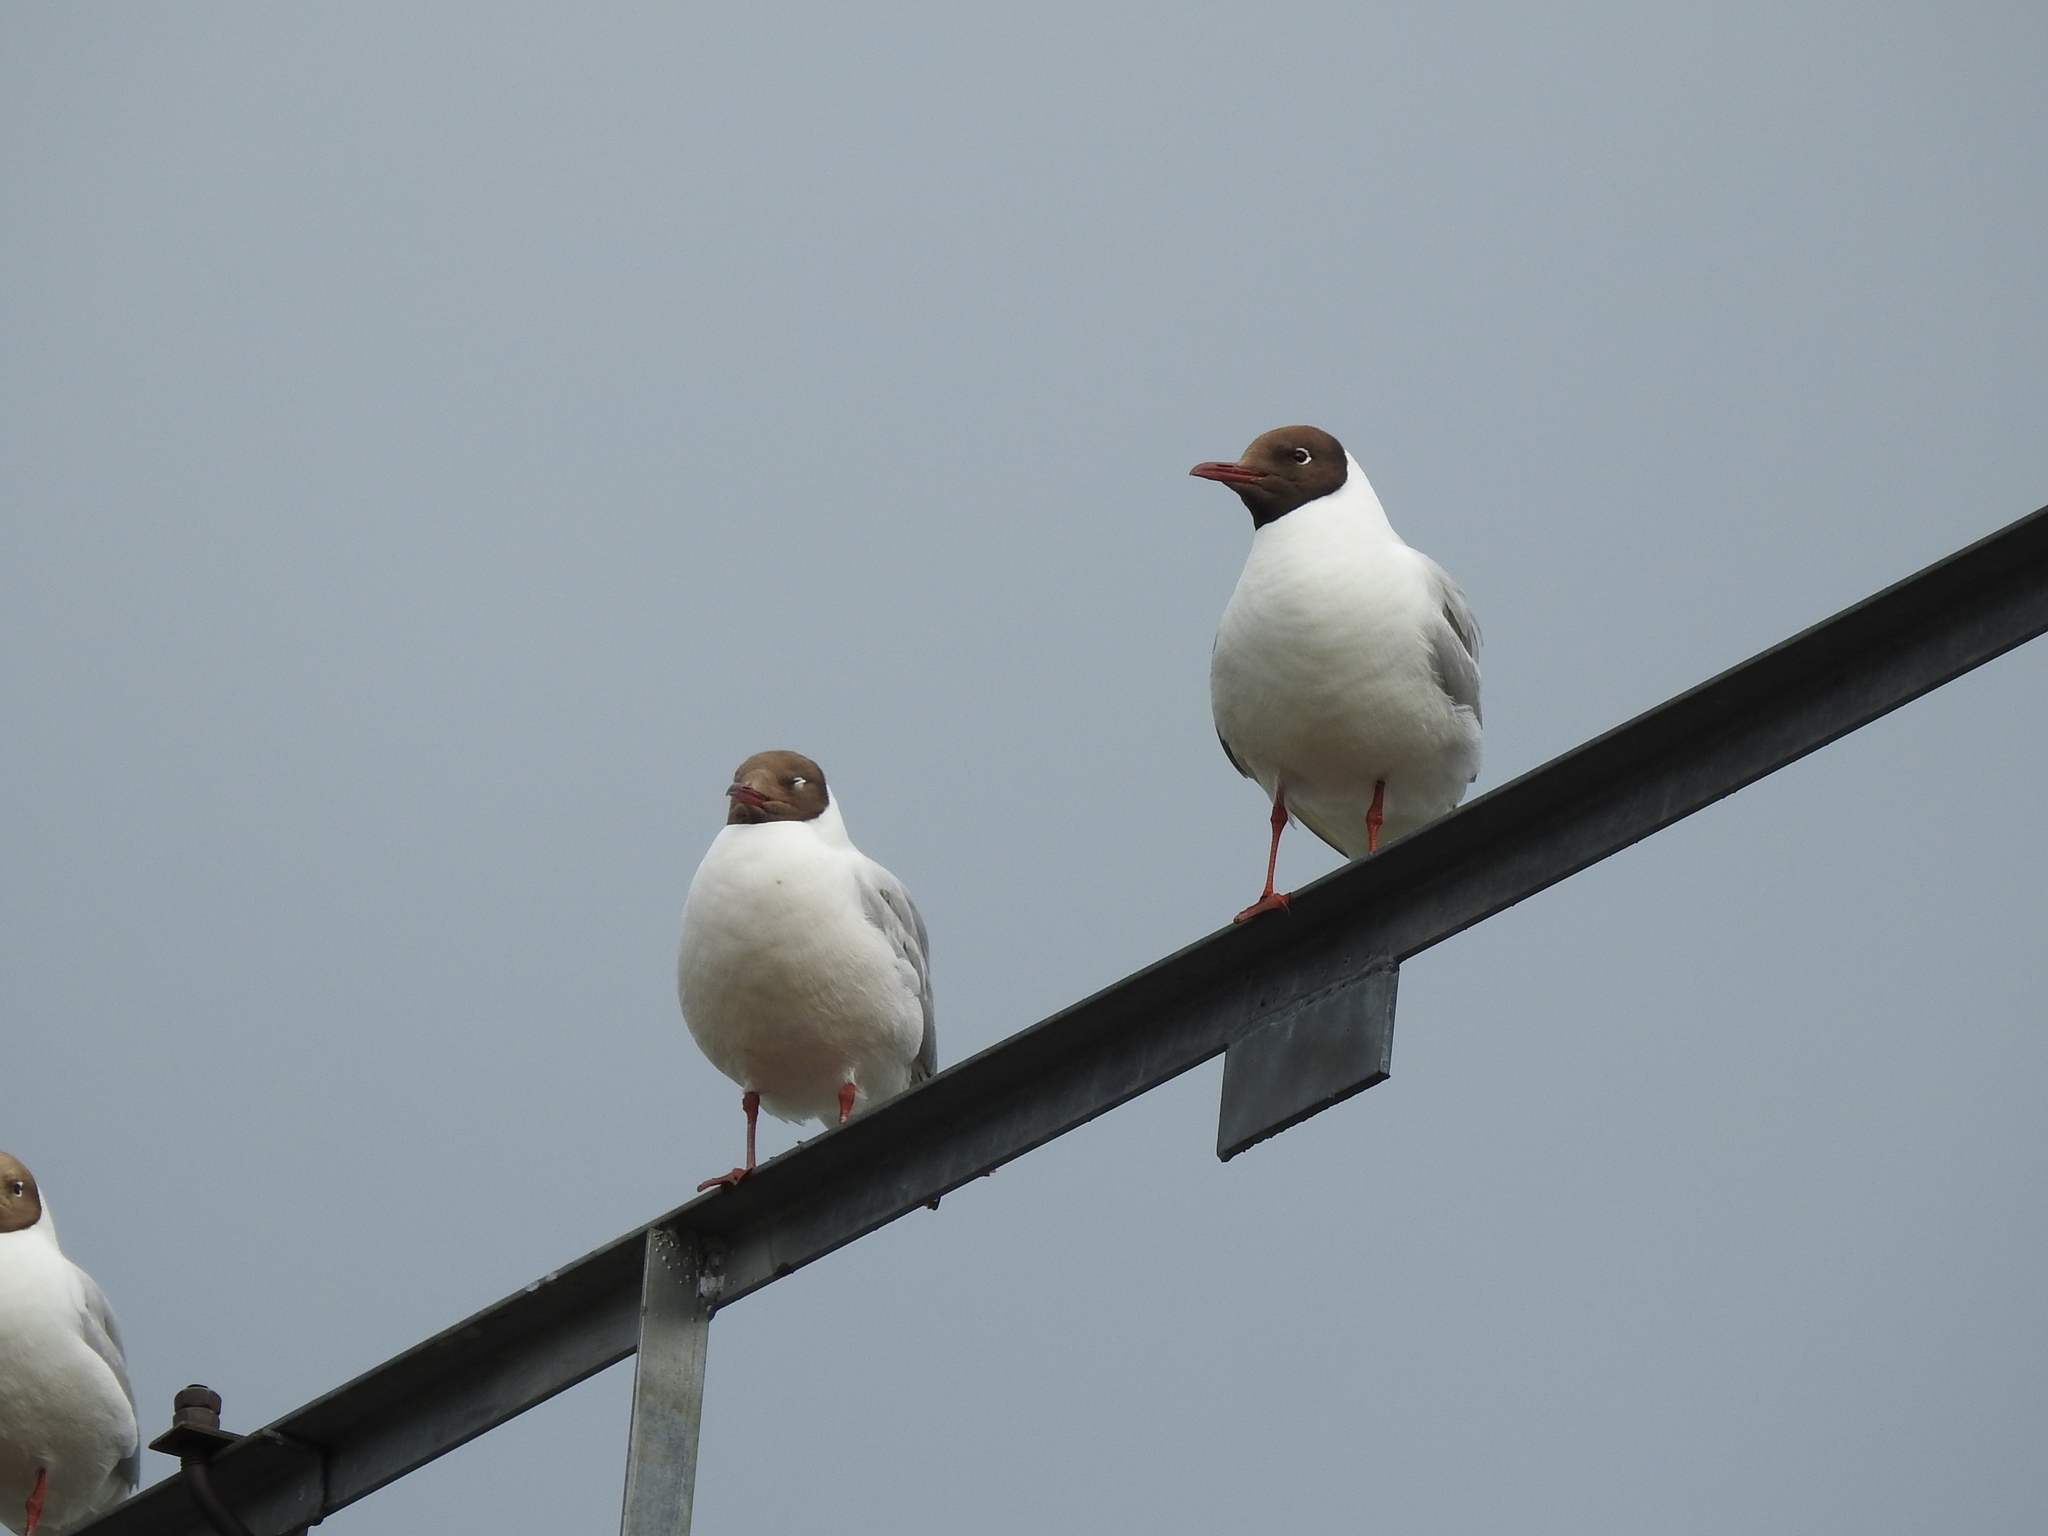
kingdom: Animalia
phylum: Chordata
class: Aves
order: Charadriiformes
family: Laridae
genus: Chroicocephalus
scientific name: Chroicocephalus ridibundus
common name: Black-headed gull
